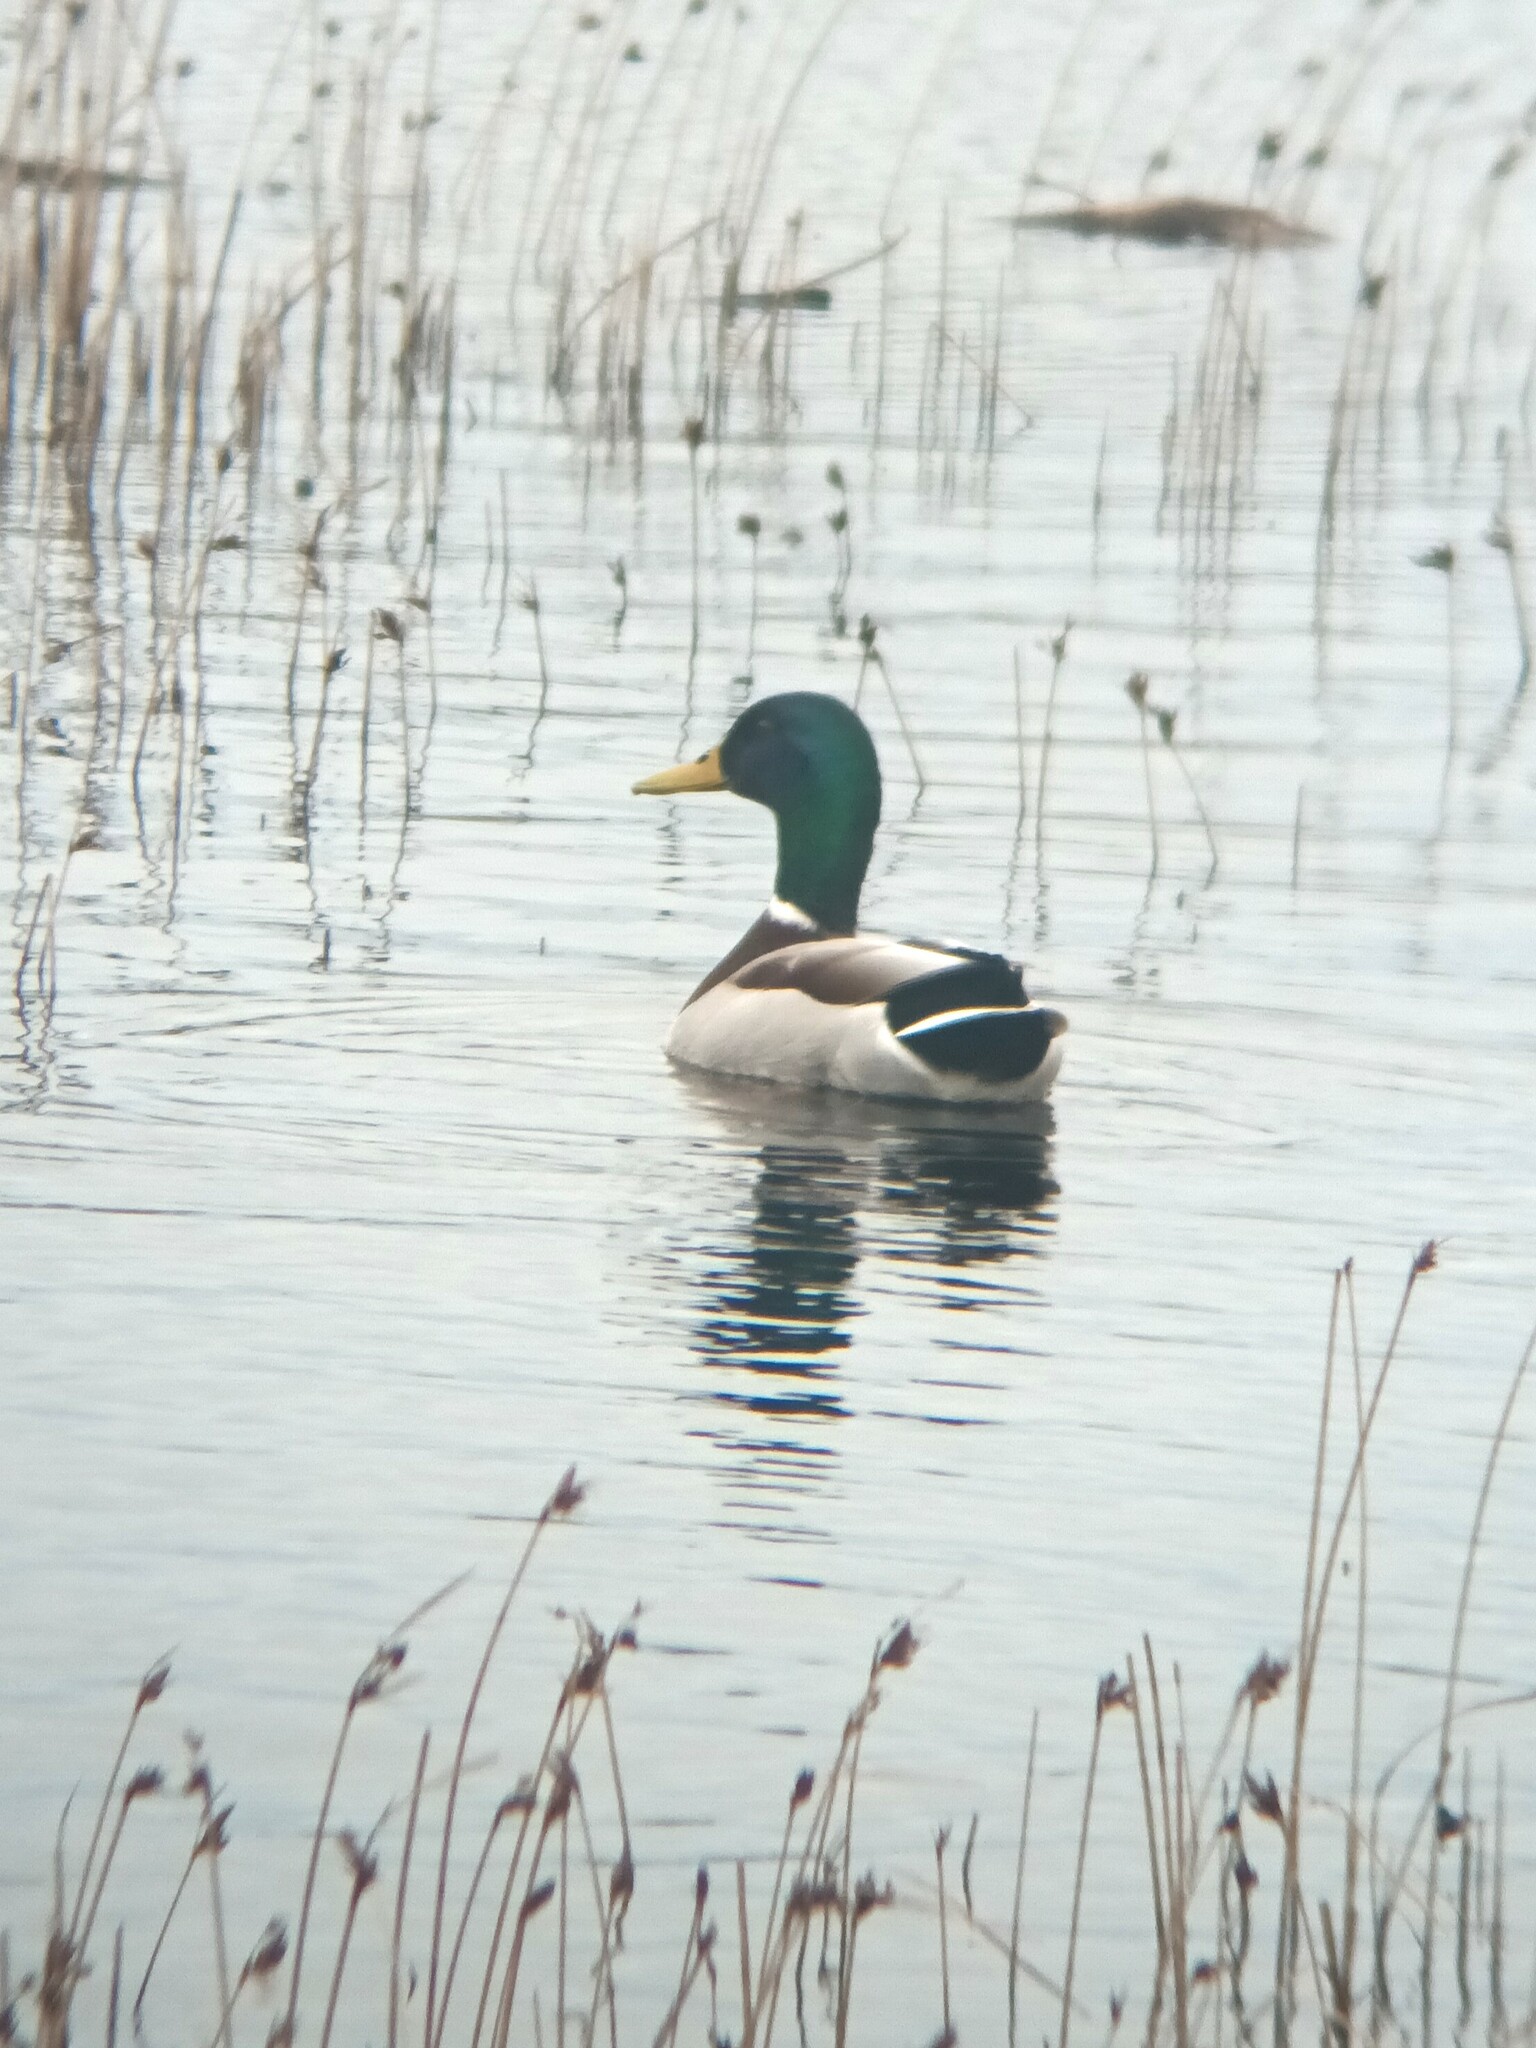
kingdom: Animalia
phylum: Chordata
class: Aves
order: Anseriformes
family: Anatidae
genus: Anas
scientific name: Anas platyrhynchos
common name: Mallard
